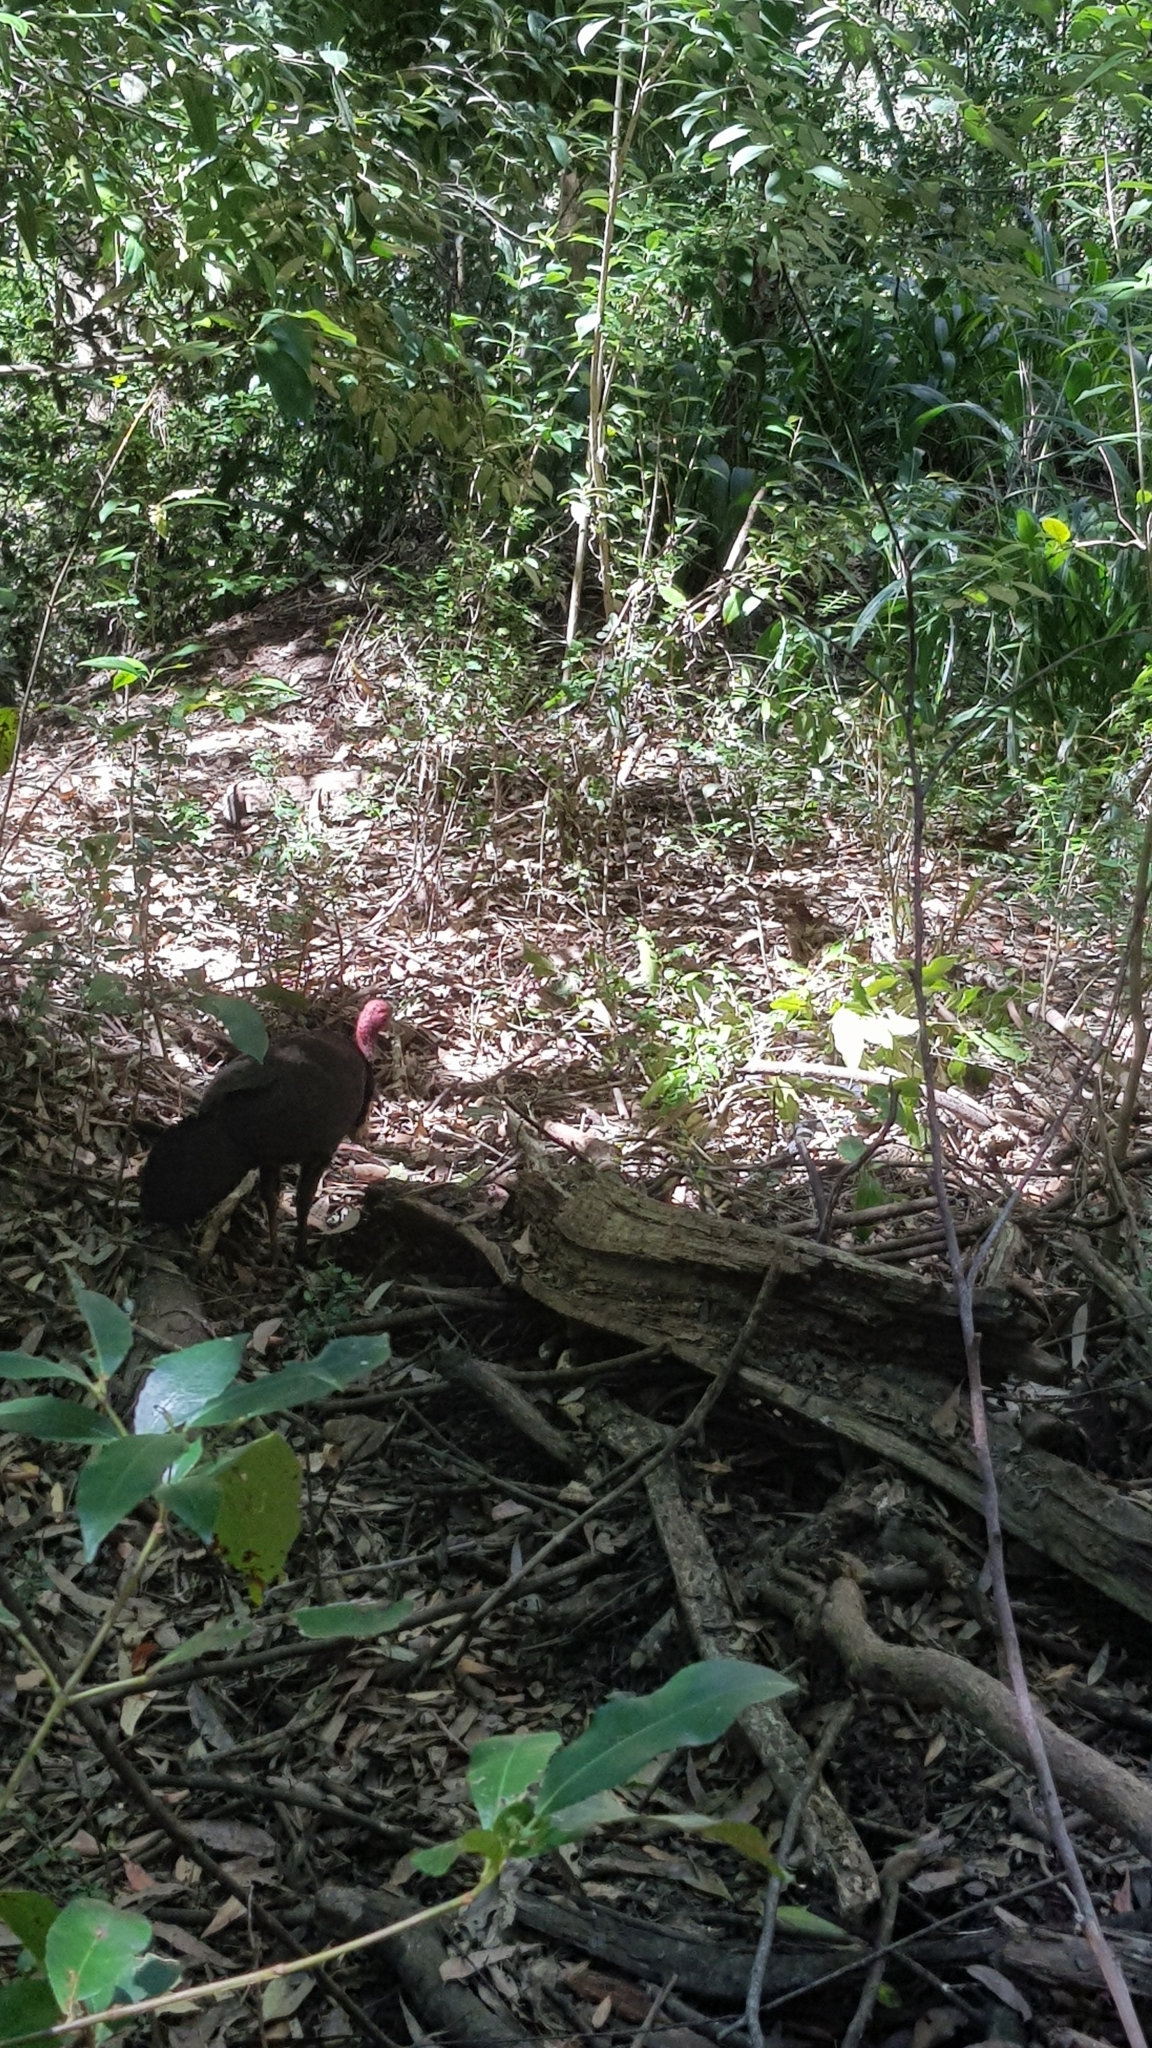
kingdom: Animalia
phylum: Chordata
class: Aves
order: Galliformes
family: Megapodiidae
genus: Alectura
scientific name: Alectura lathami
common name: Australian brushturkey
